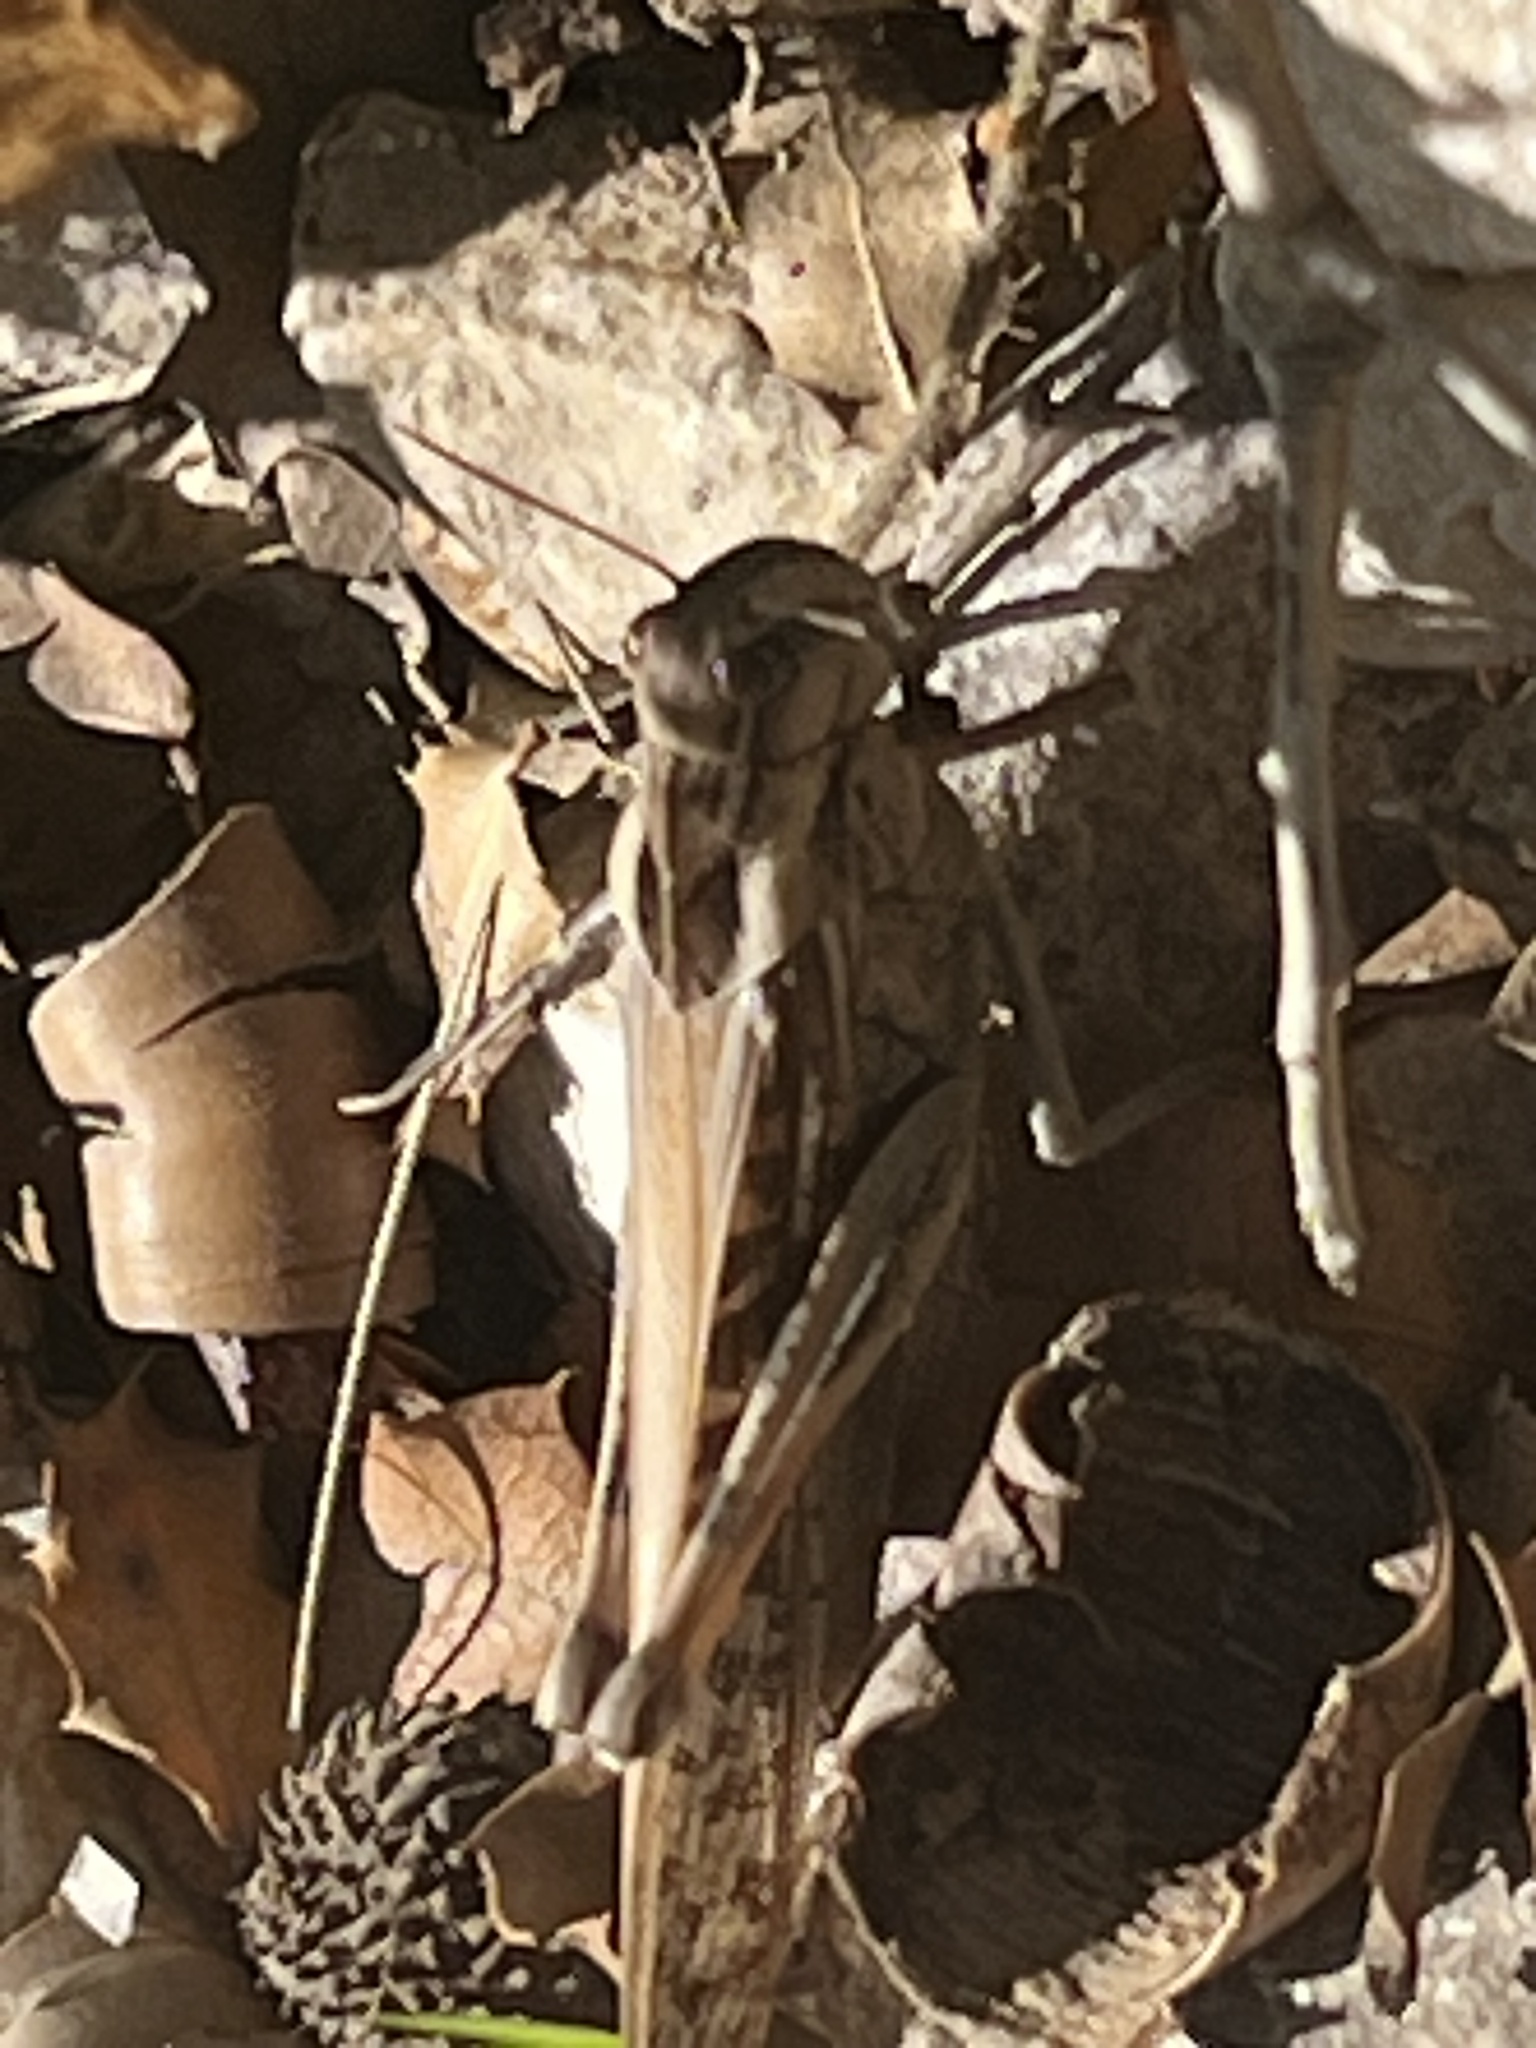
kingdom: Animalia
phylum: Arthropoda
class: Insecta
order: Orthoptera
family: Acrididae
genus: Locusta
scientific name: Locusta migratoria
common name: Migratory locust
